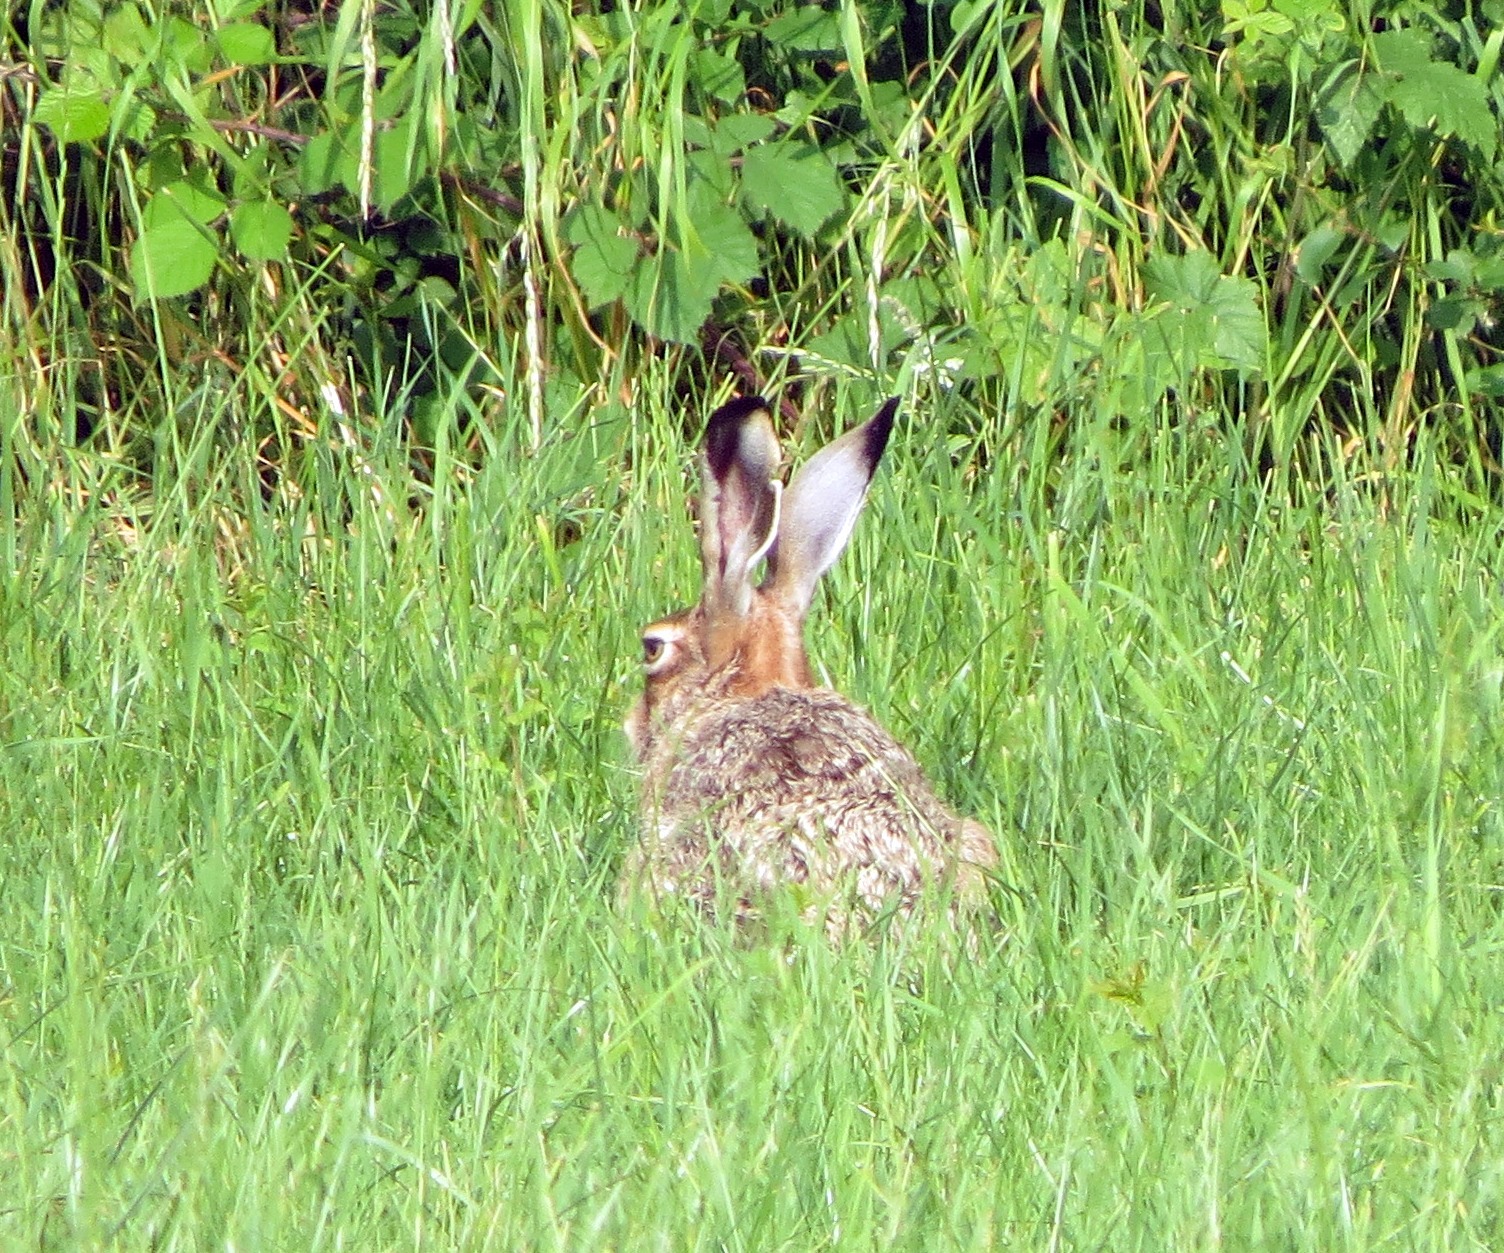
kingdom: Animalia
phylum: Chordata
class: Mammalia
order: Lagomorpha
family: Leporidae
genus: Lepus
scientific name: Lepus europaeus
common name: European hare
